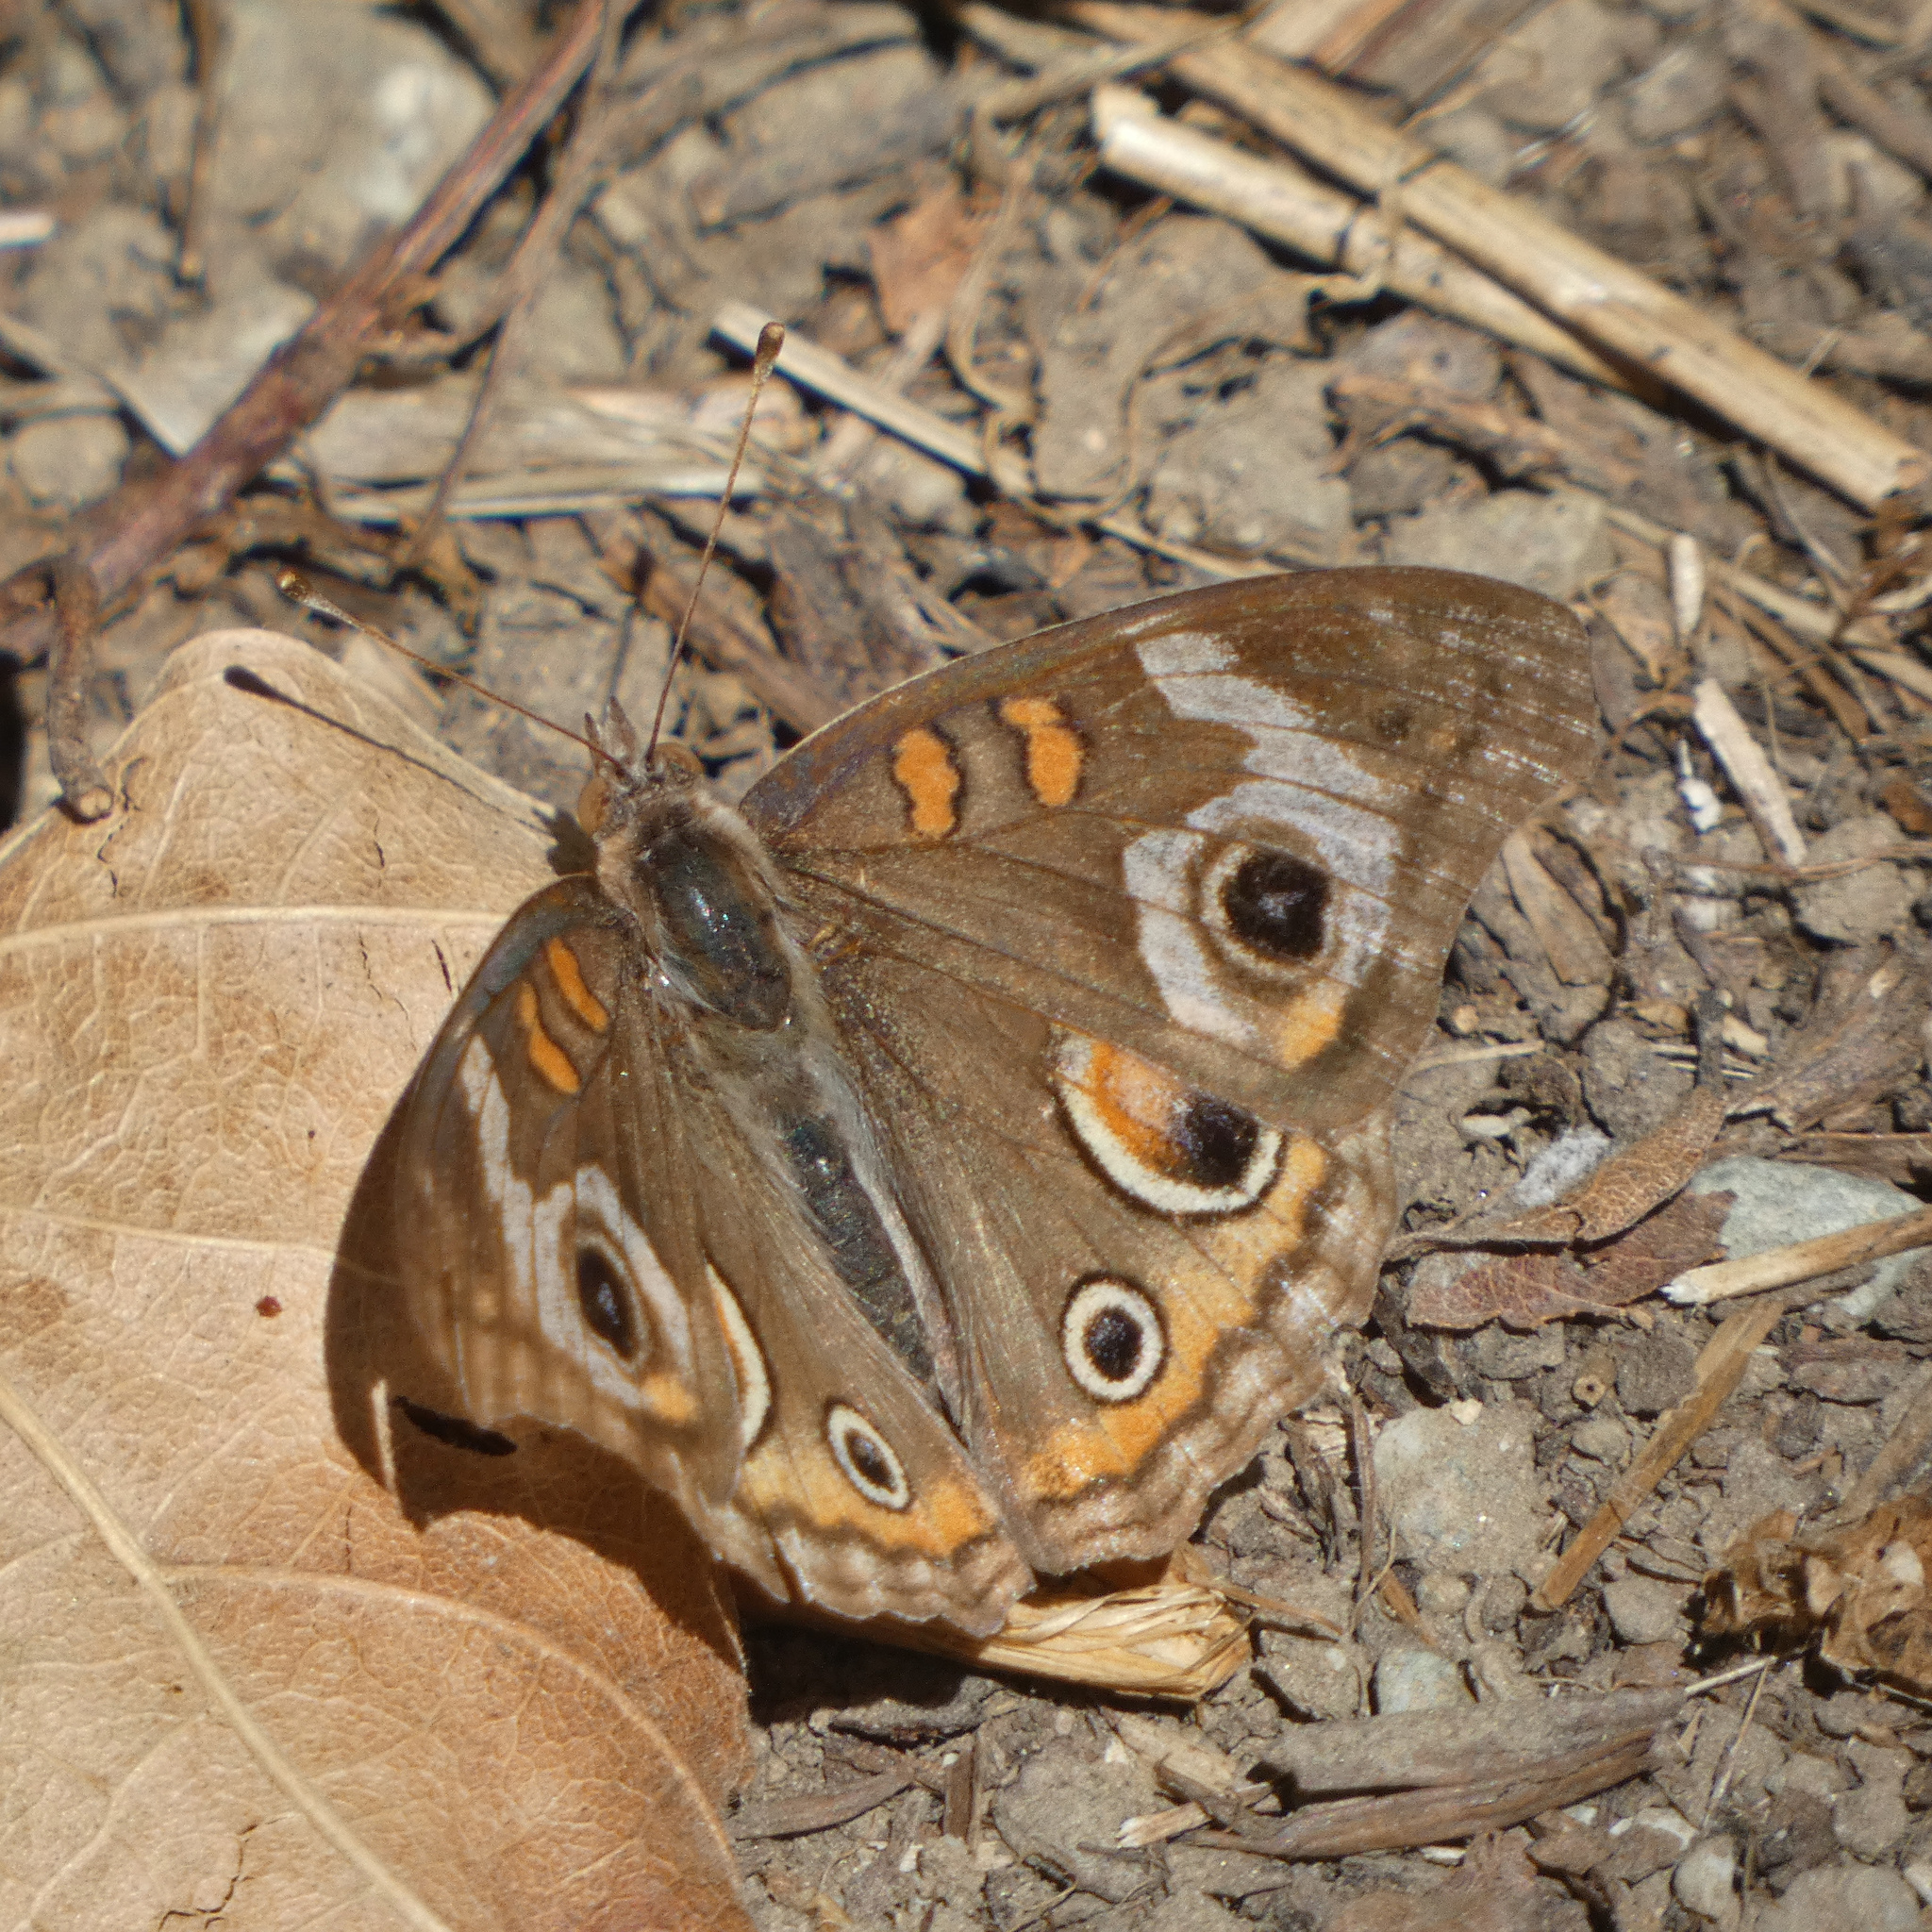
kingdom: Animalia
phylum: Arthropoda
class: Insecta
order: Lepidoptera
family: Nymphalidae
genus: Junonia
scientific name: Junonia grisea
